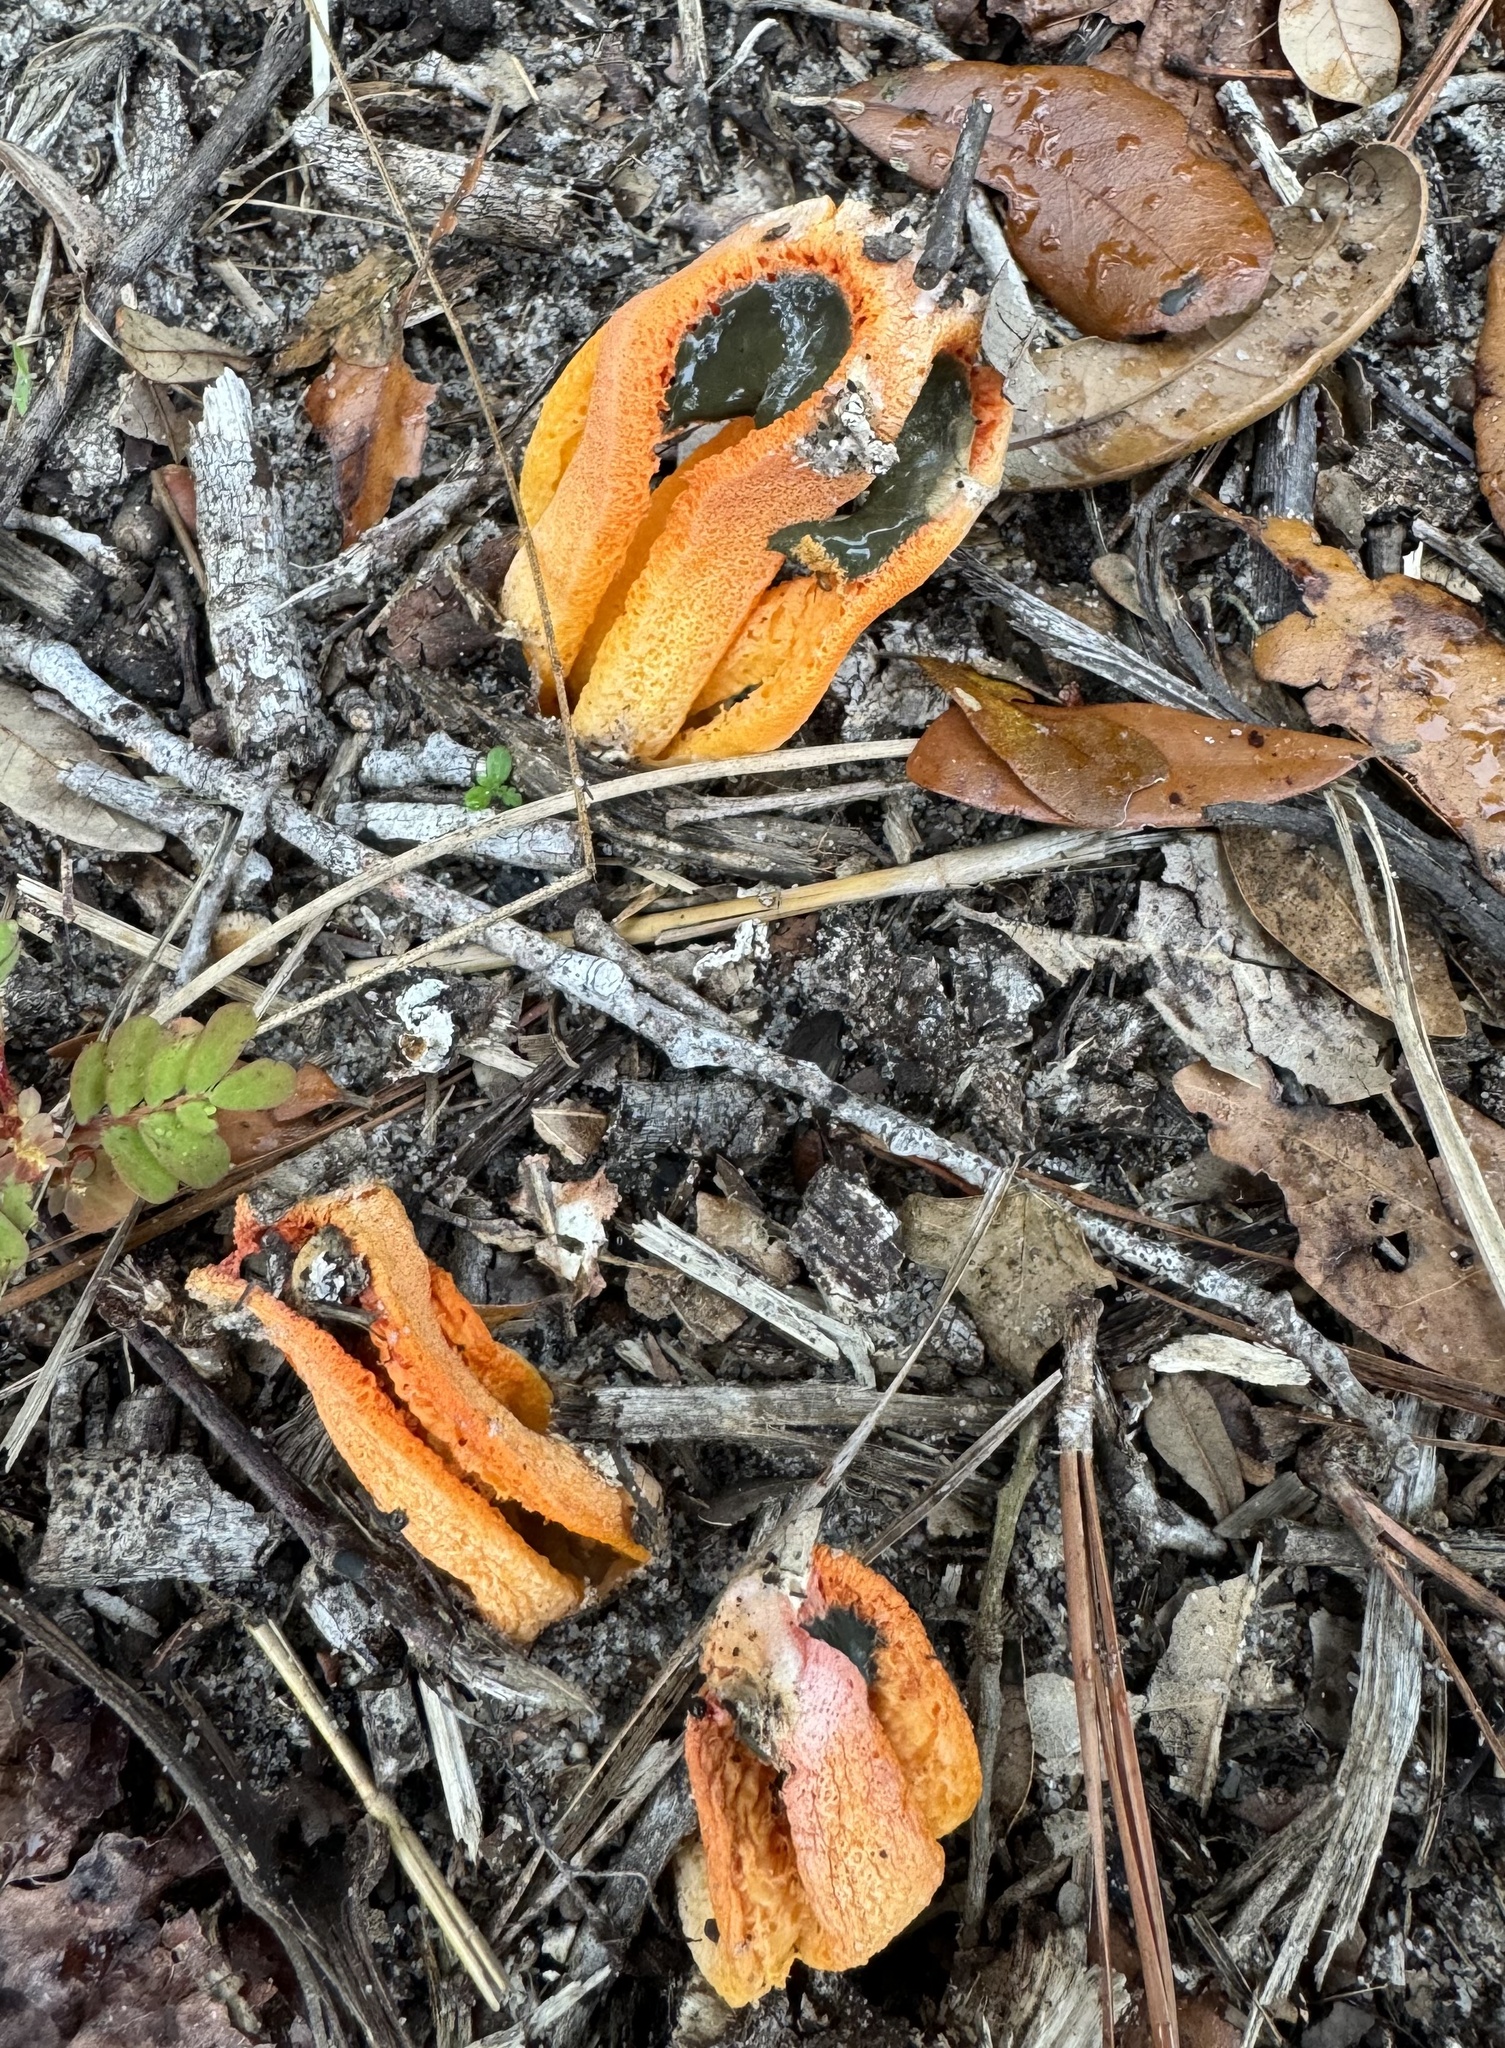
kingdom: Fungi
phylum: Basidiomycota
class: Agaricomycetes
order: Phallales
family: Phallaceae
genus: Clathrus
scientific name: Clathrus columnatus
